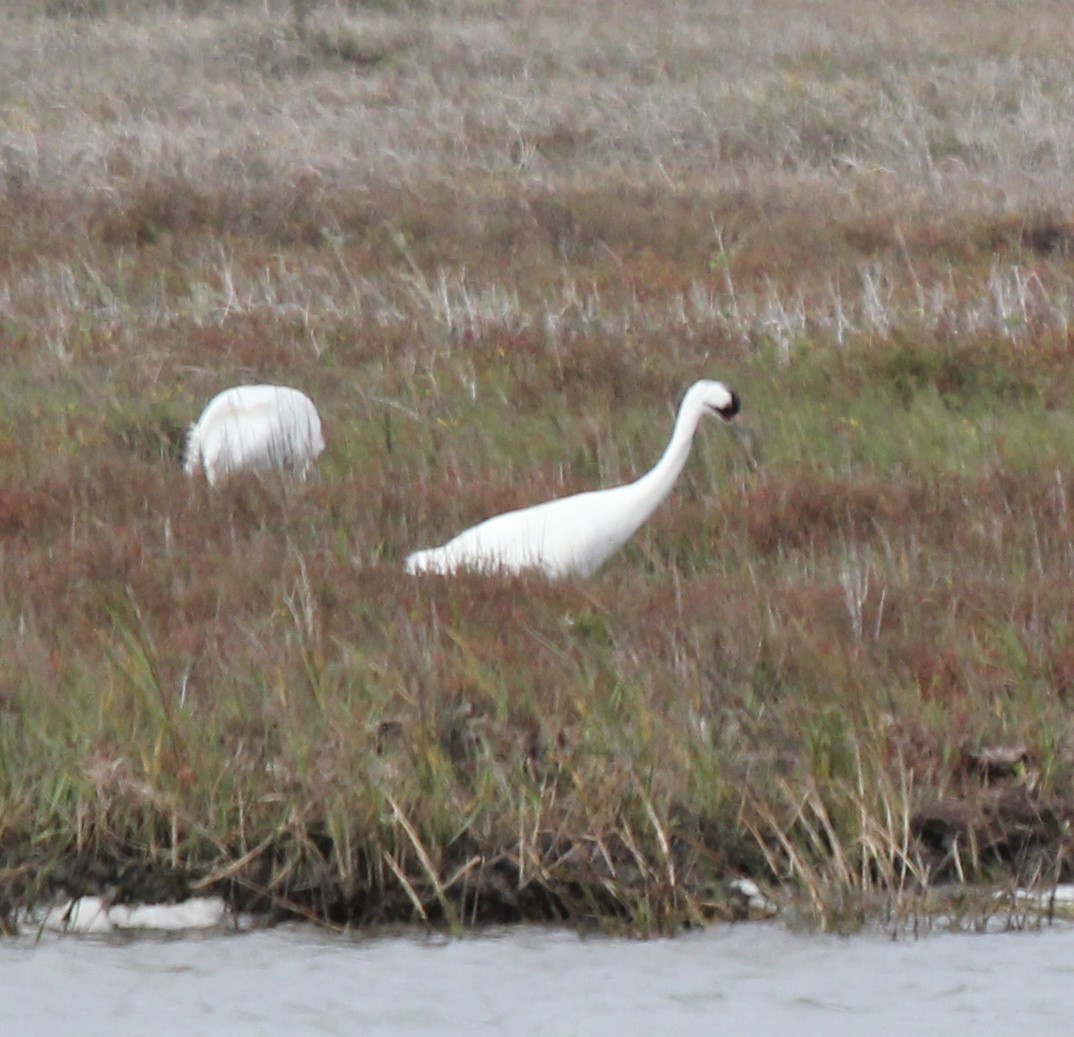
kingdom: Animalia
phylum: Chordata
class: Aves
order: Gruiformes
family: Gruidae
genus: Grus
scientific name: Grus americana
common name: Whooping crane
